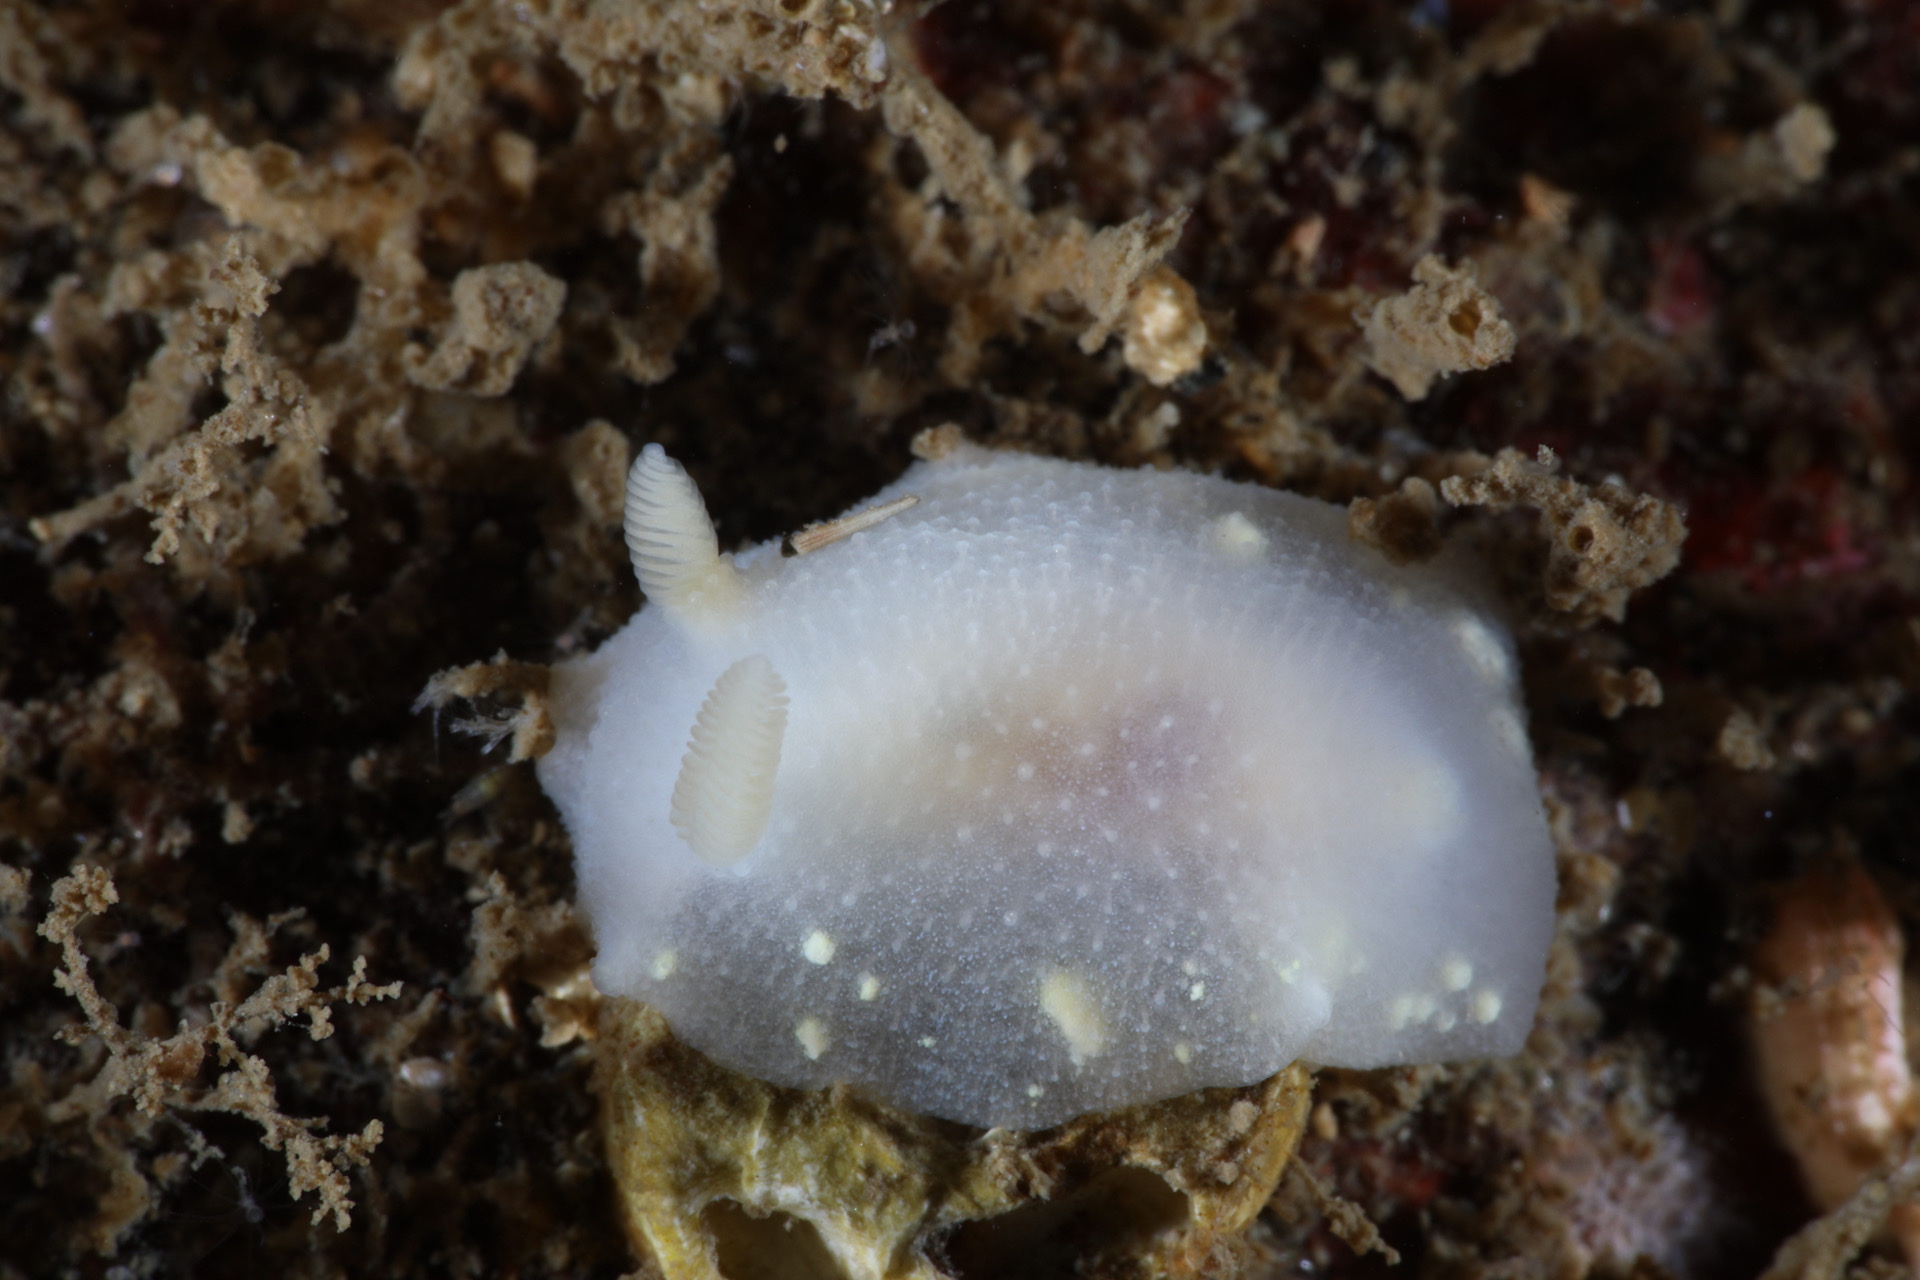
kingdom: Animalia
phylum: Mollusca
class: Gastropoda
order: Nudibranchia
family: Cadlinidae
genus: Cadlina
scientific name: Cadlina laevis
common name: White atlantic cadlina
